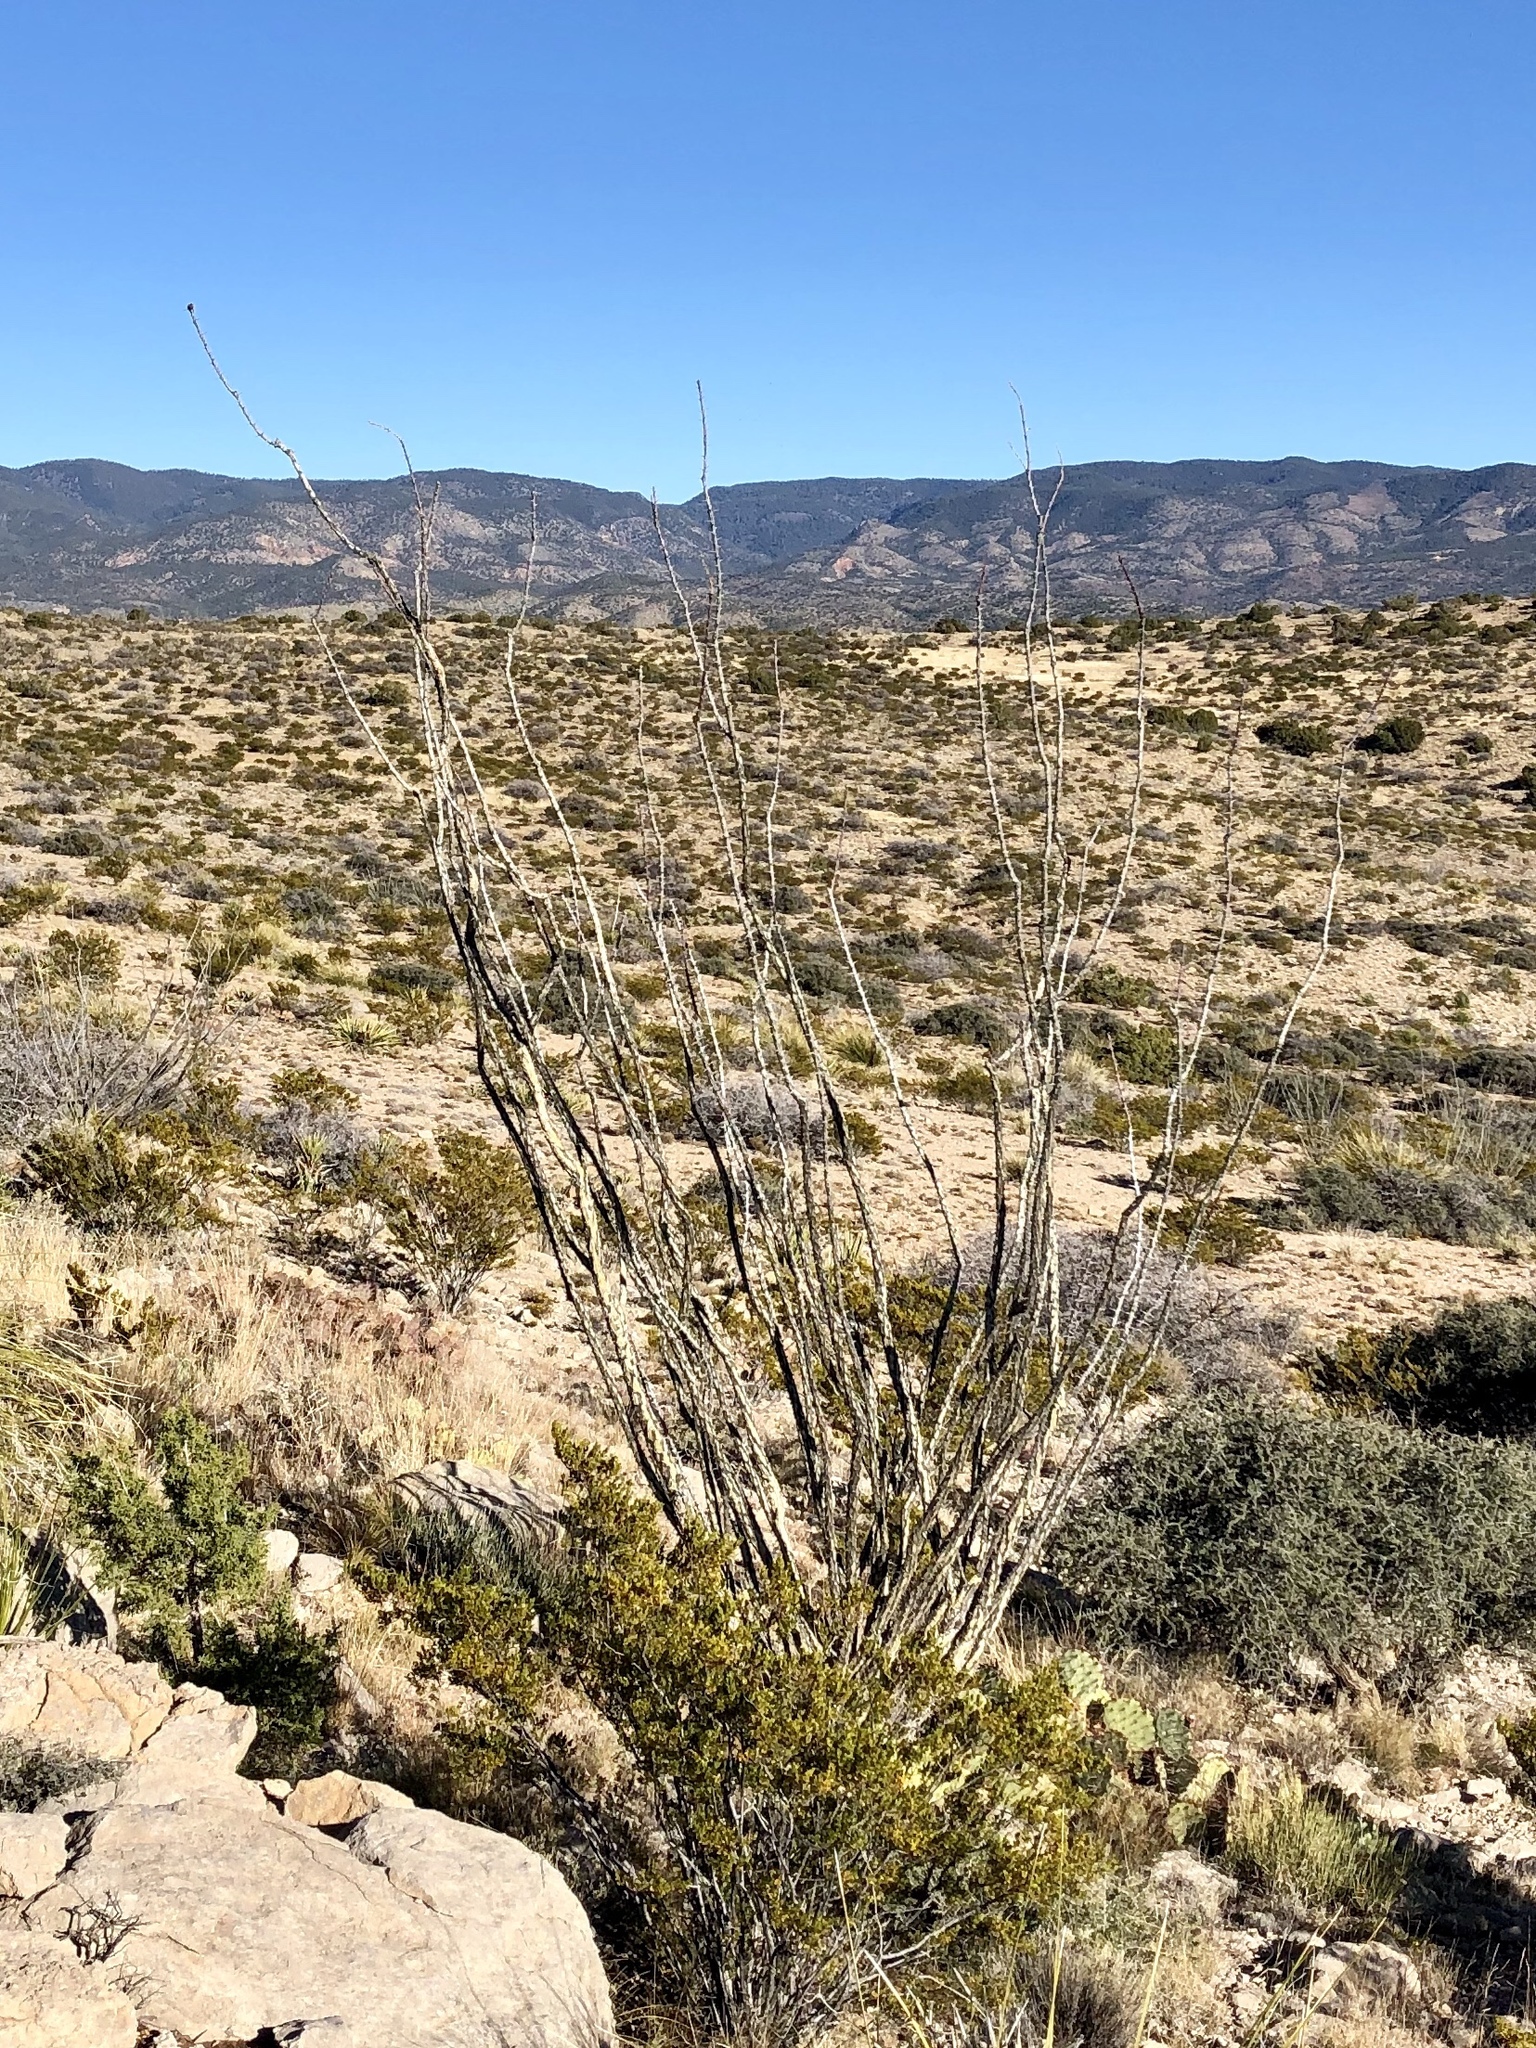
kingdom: Plantae
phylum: Tracheophyta
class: Magnoliopsida
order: Ericales
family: Fouquieriaceae
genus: Fouquieria
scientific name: Fouquieria splendens
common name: Vine-cactus
